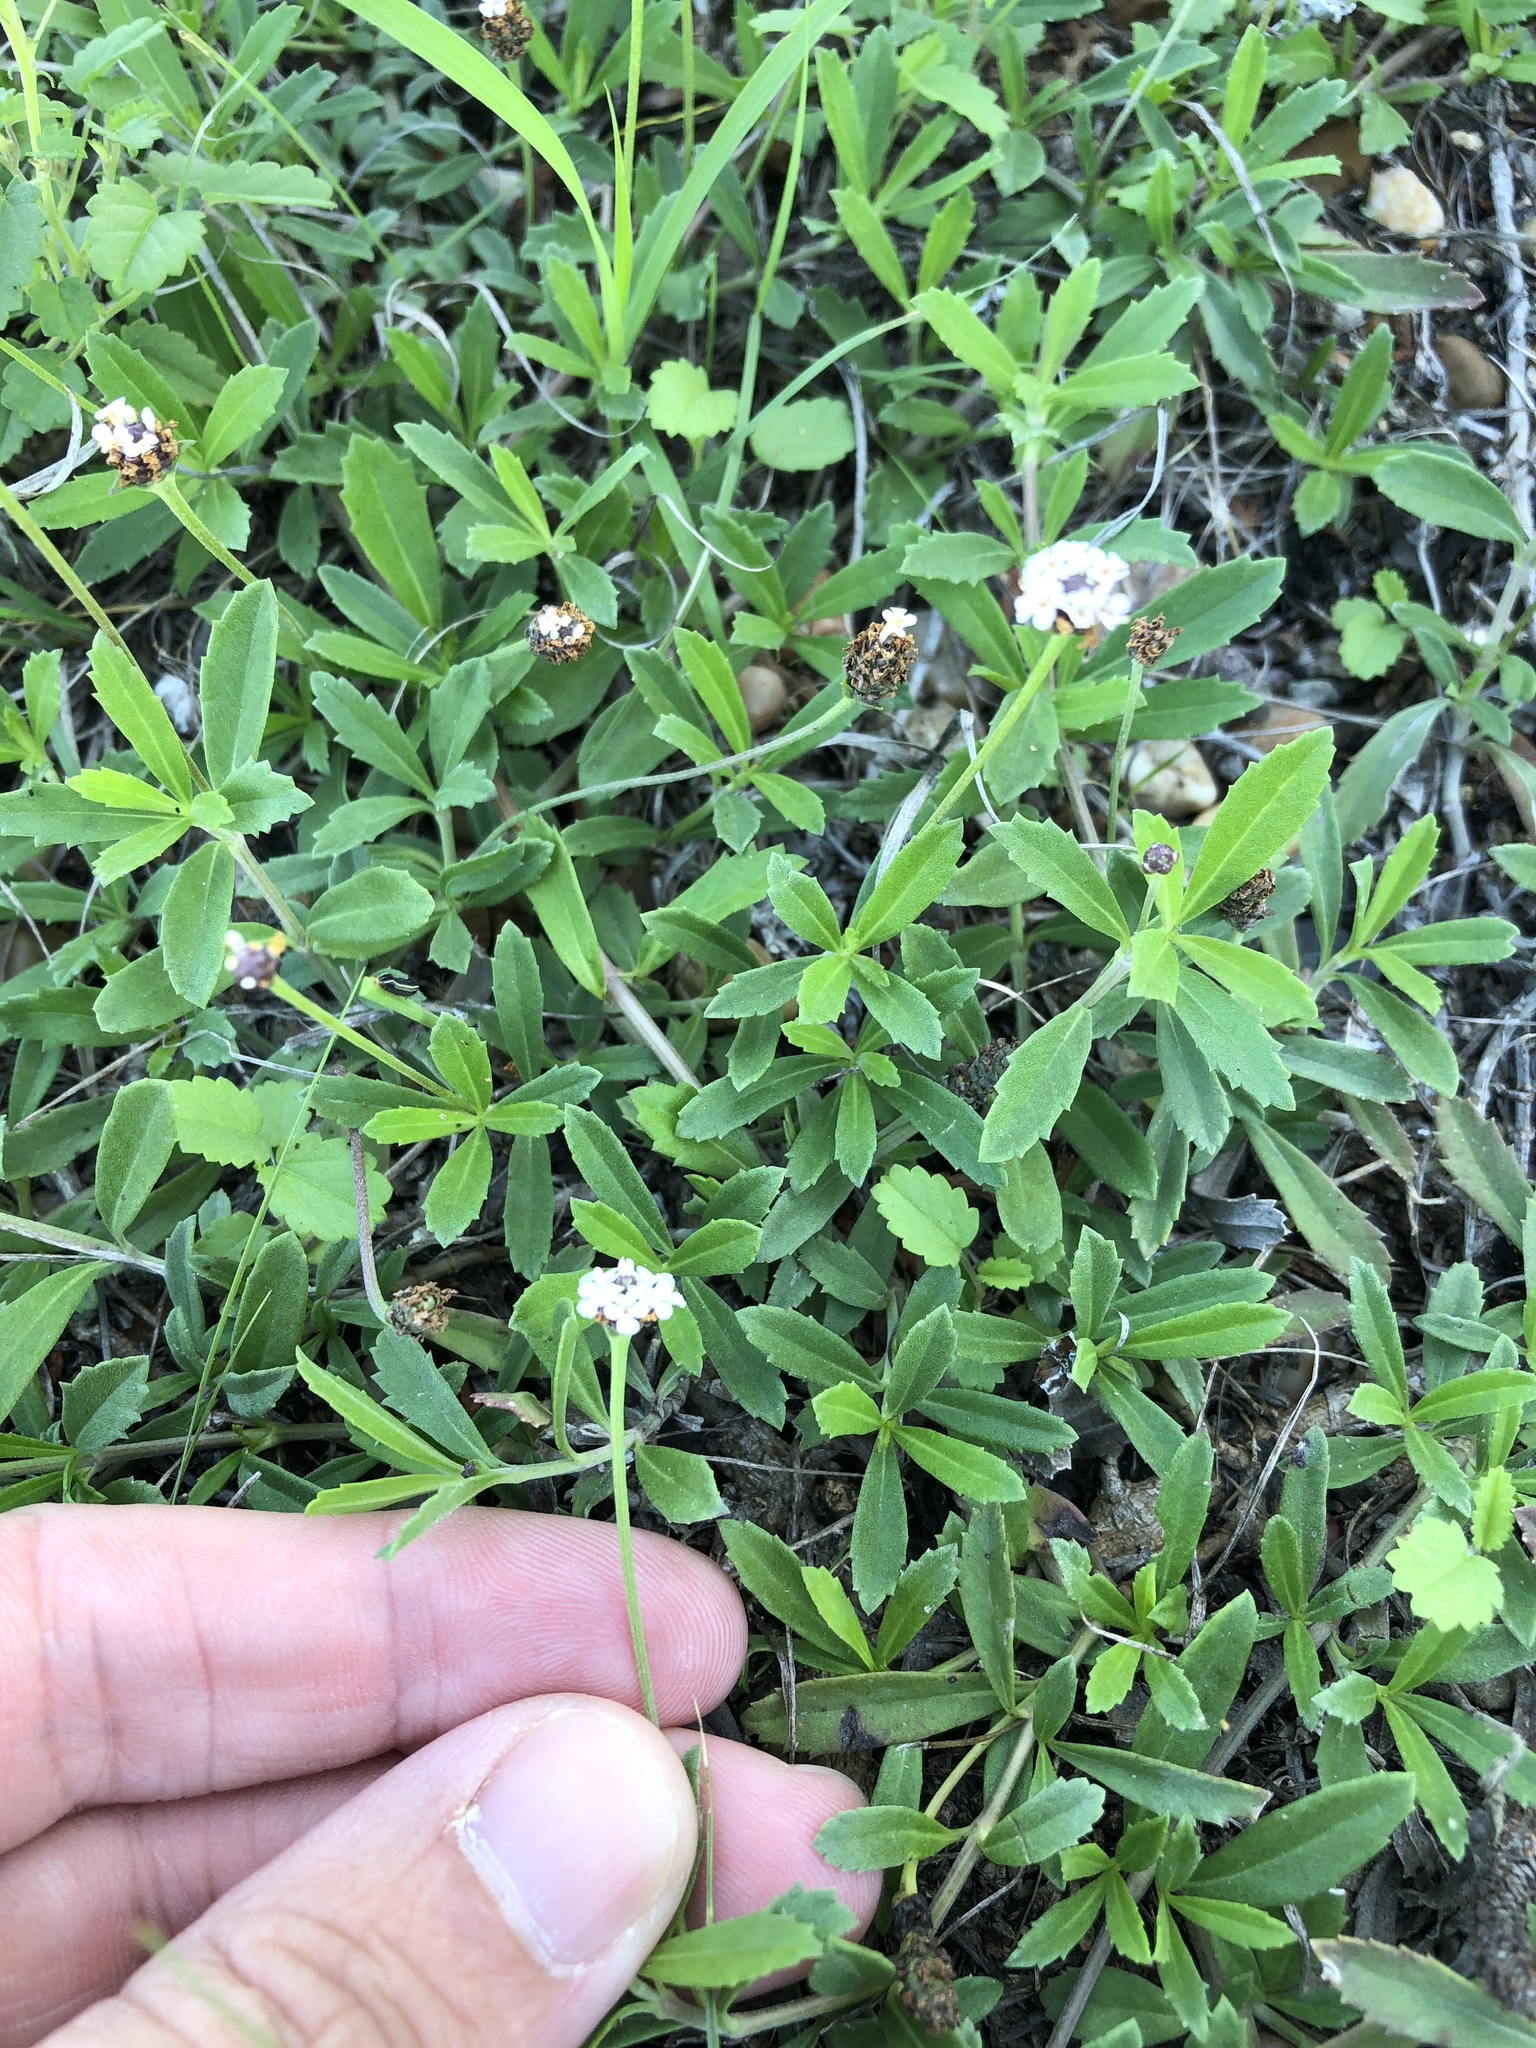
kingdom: Plantae
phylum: Tracheophyta
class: Magnoliopsida
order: Lamiales
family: Verbenaceae
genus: Phyla
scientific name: Phyla nodiflora
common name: Frogfruit
